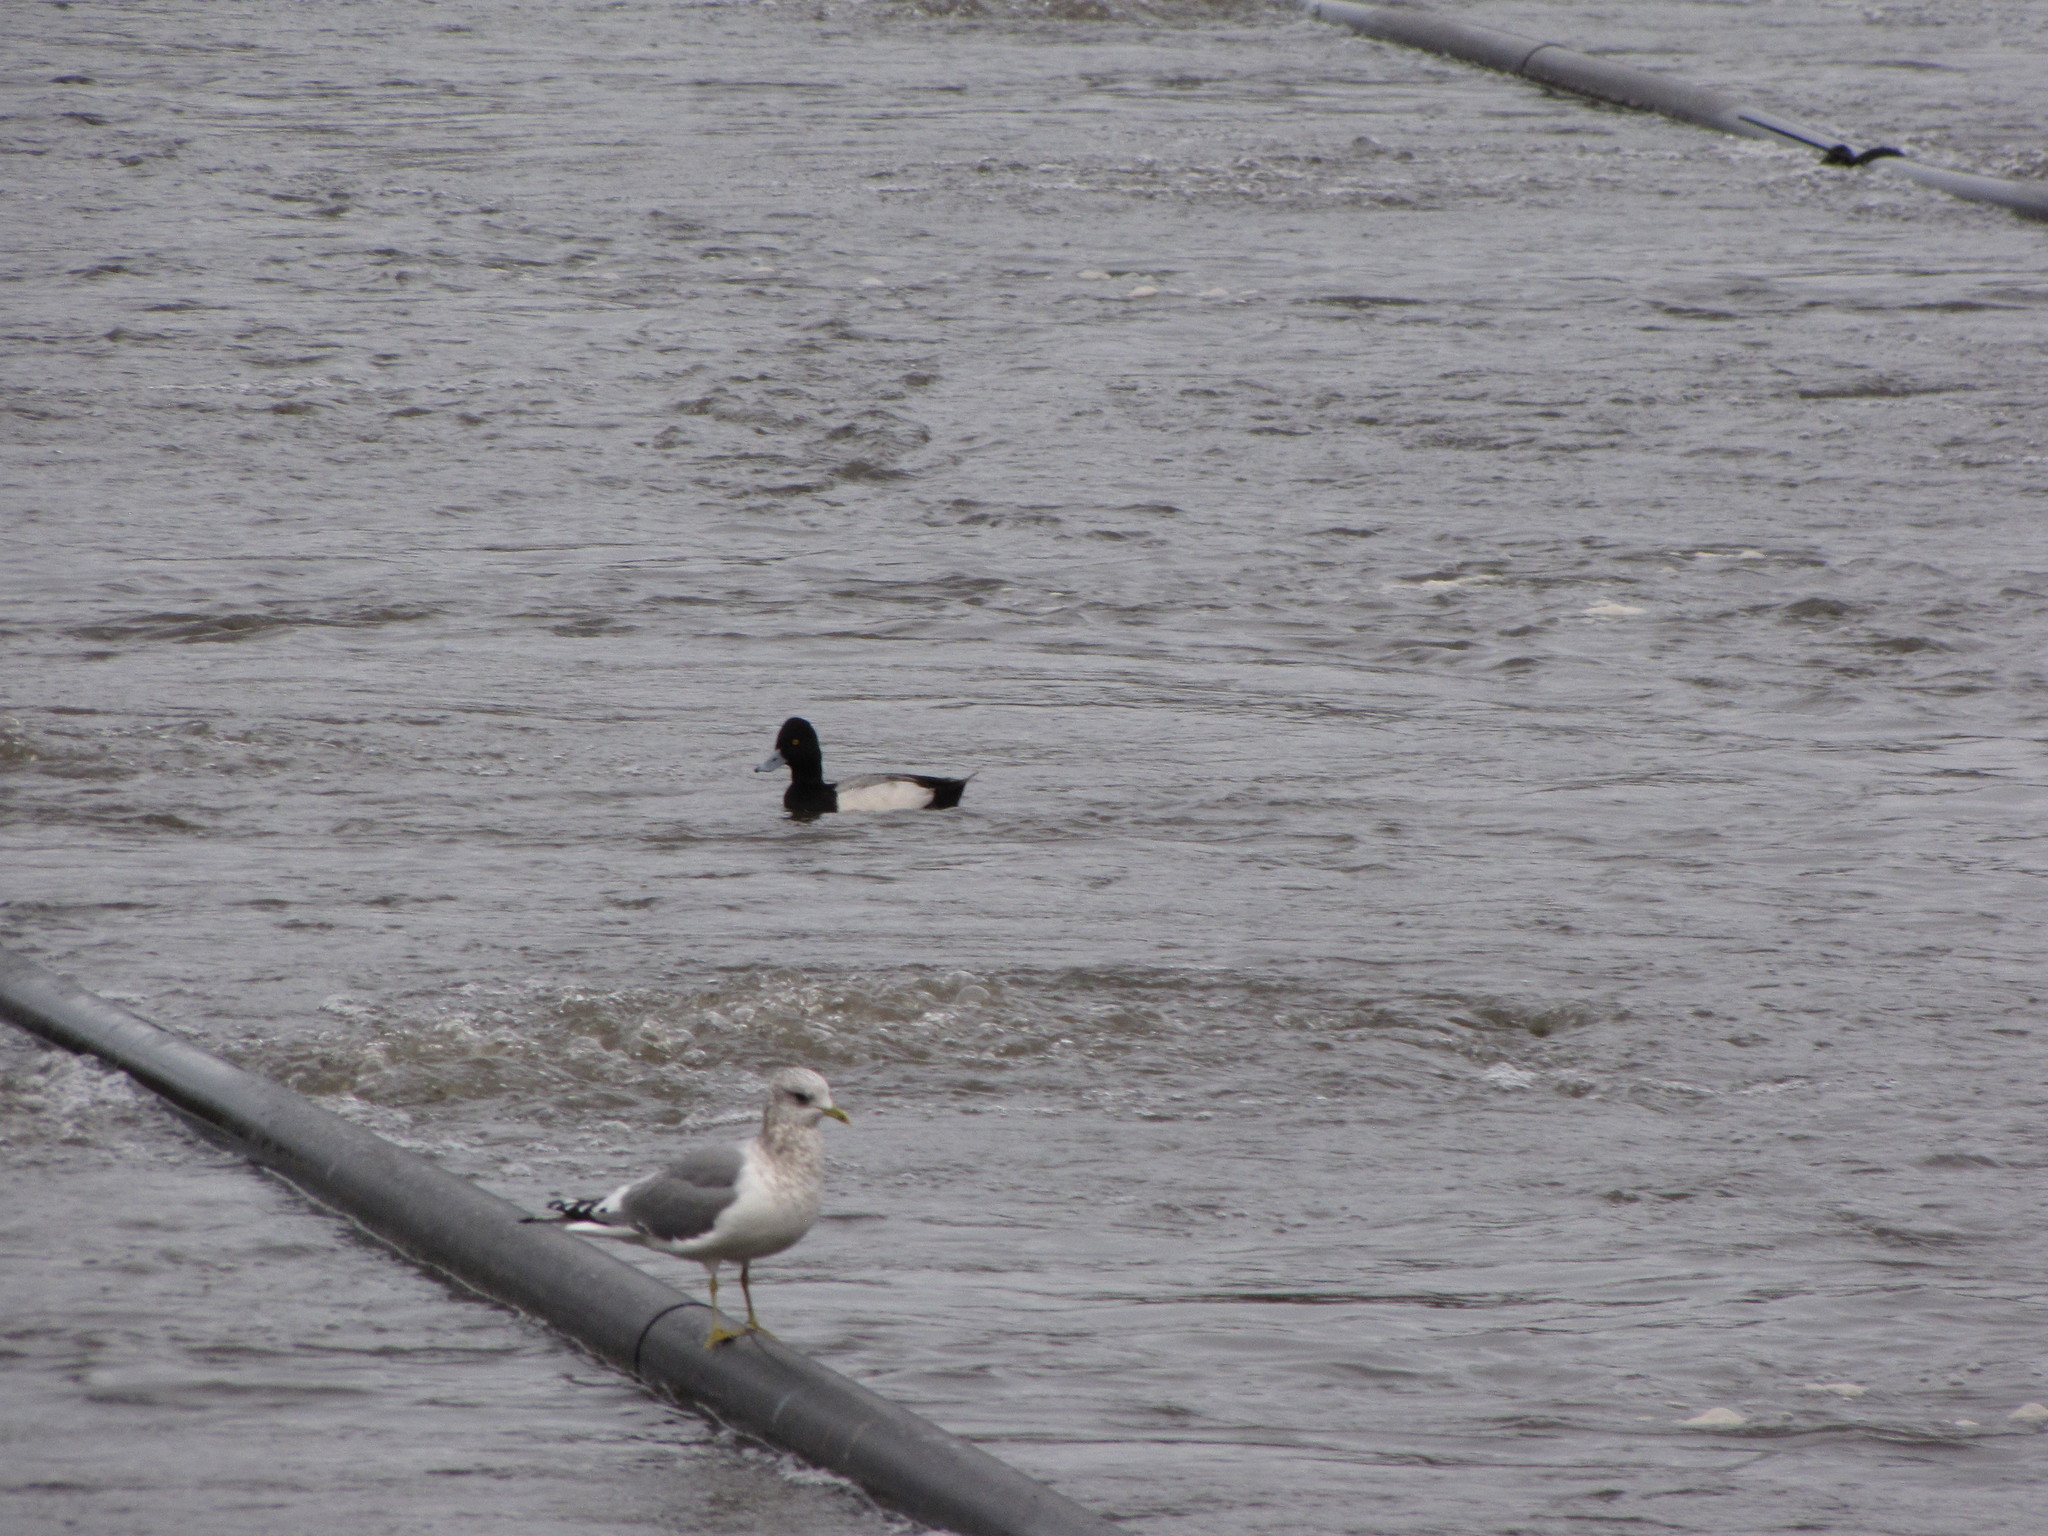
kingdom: Animalia
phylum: Chordata
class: Aves
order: Anseriformes
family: Anatidae
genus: Aythya
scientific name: Aythya affinis
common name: Lesser scaup
